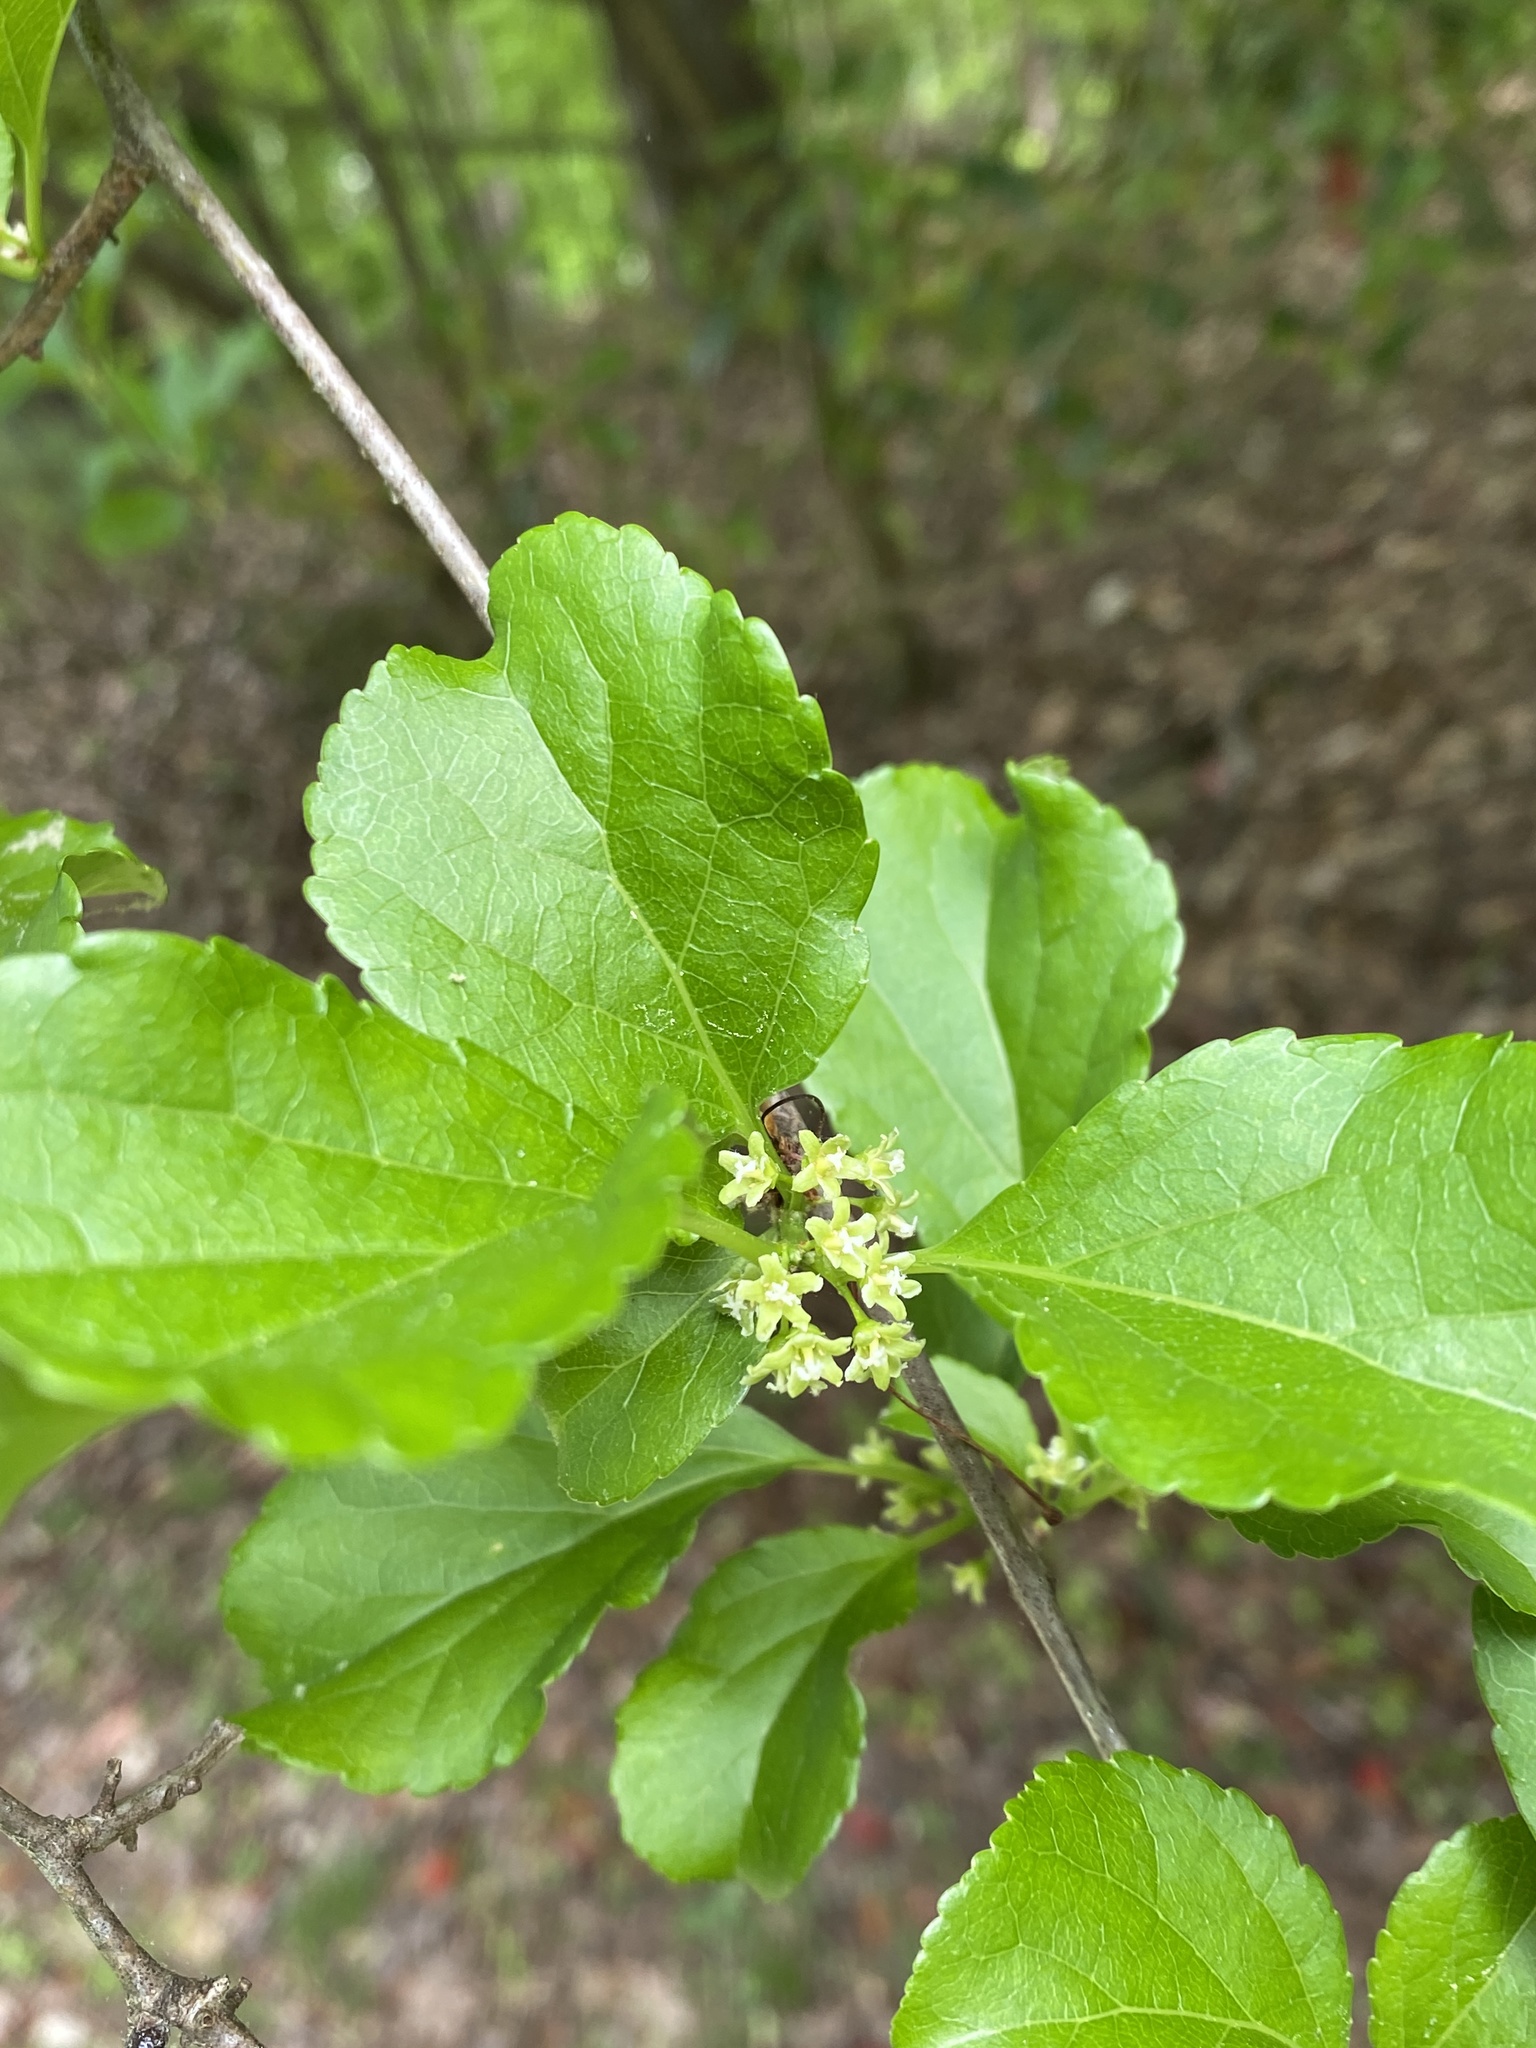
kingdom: Plantae
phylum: Tracheophyta
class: Magnoliopsida
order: Celastrales
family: Celastraceae
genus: Celastrus
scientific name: Celastrus orbiculatus
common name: Oriental bittersweet
